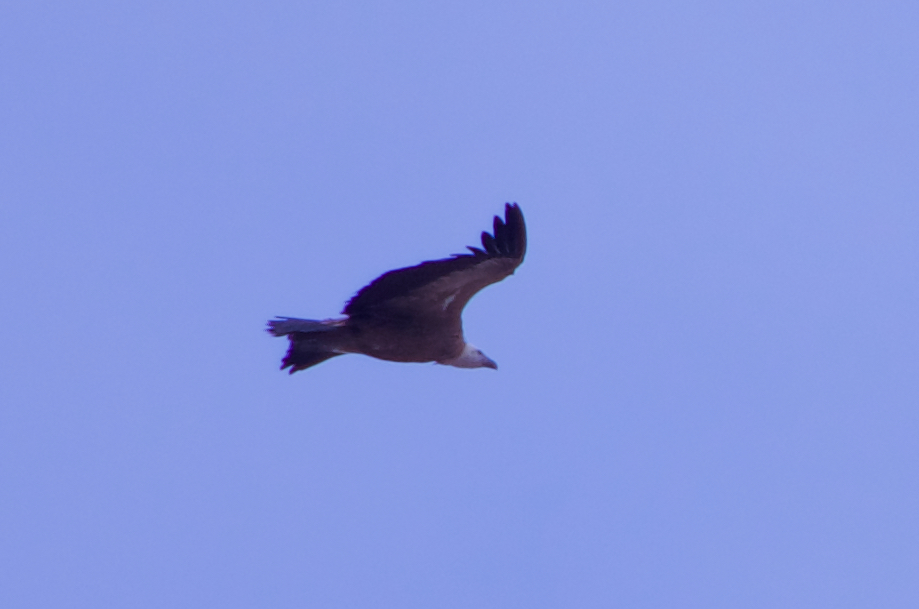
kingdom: Animalia
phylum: Chordata
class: Aves
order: Accipitriformes
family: Accipitridae
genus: Gyps
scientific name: Gyps fulvus
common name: Griffon vulture
